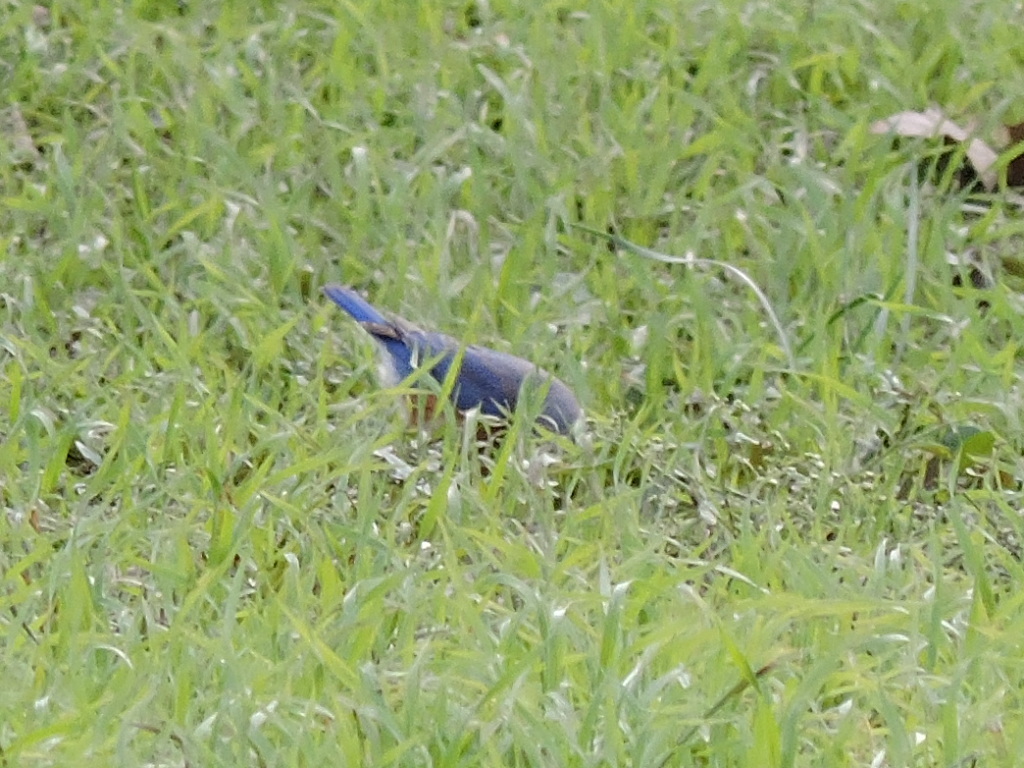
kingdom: Animalia
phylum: Chordata
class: Aves
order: Passeriformes
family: Turdidae
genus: Sialia
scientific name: Sialia sialis
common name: Eastern bluebird
